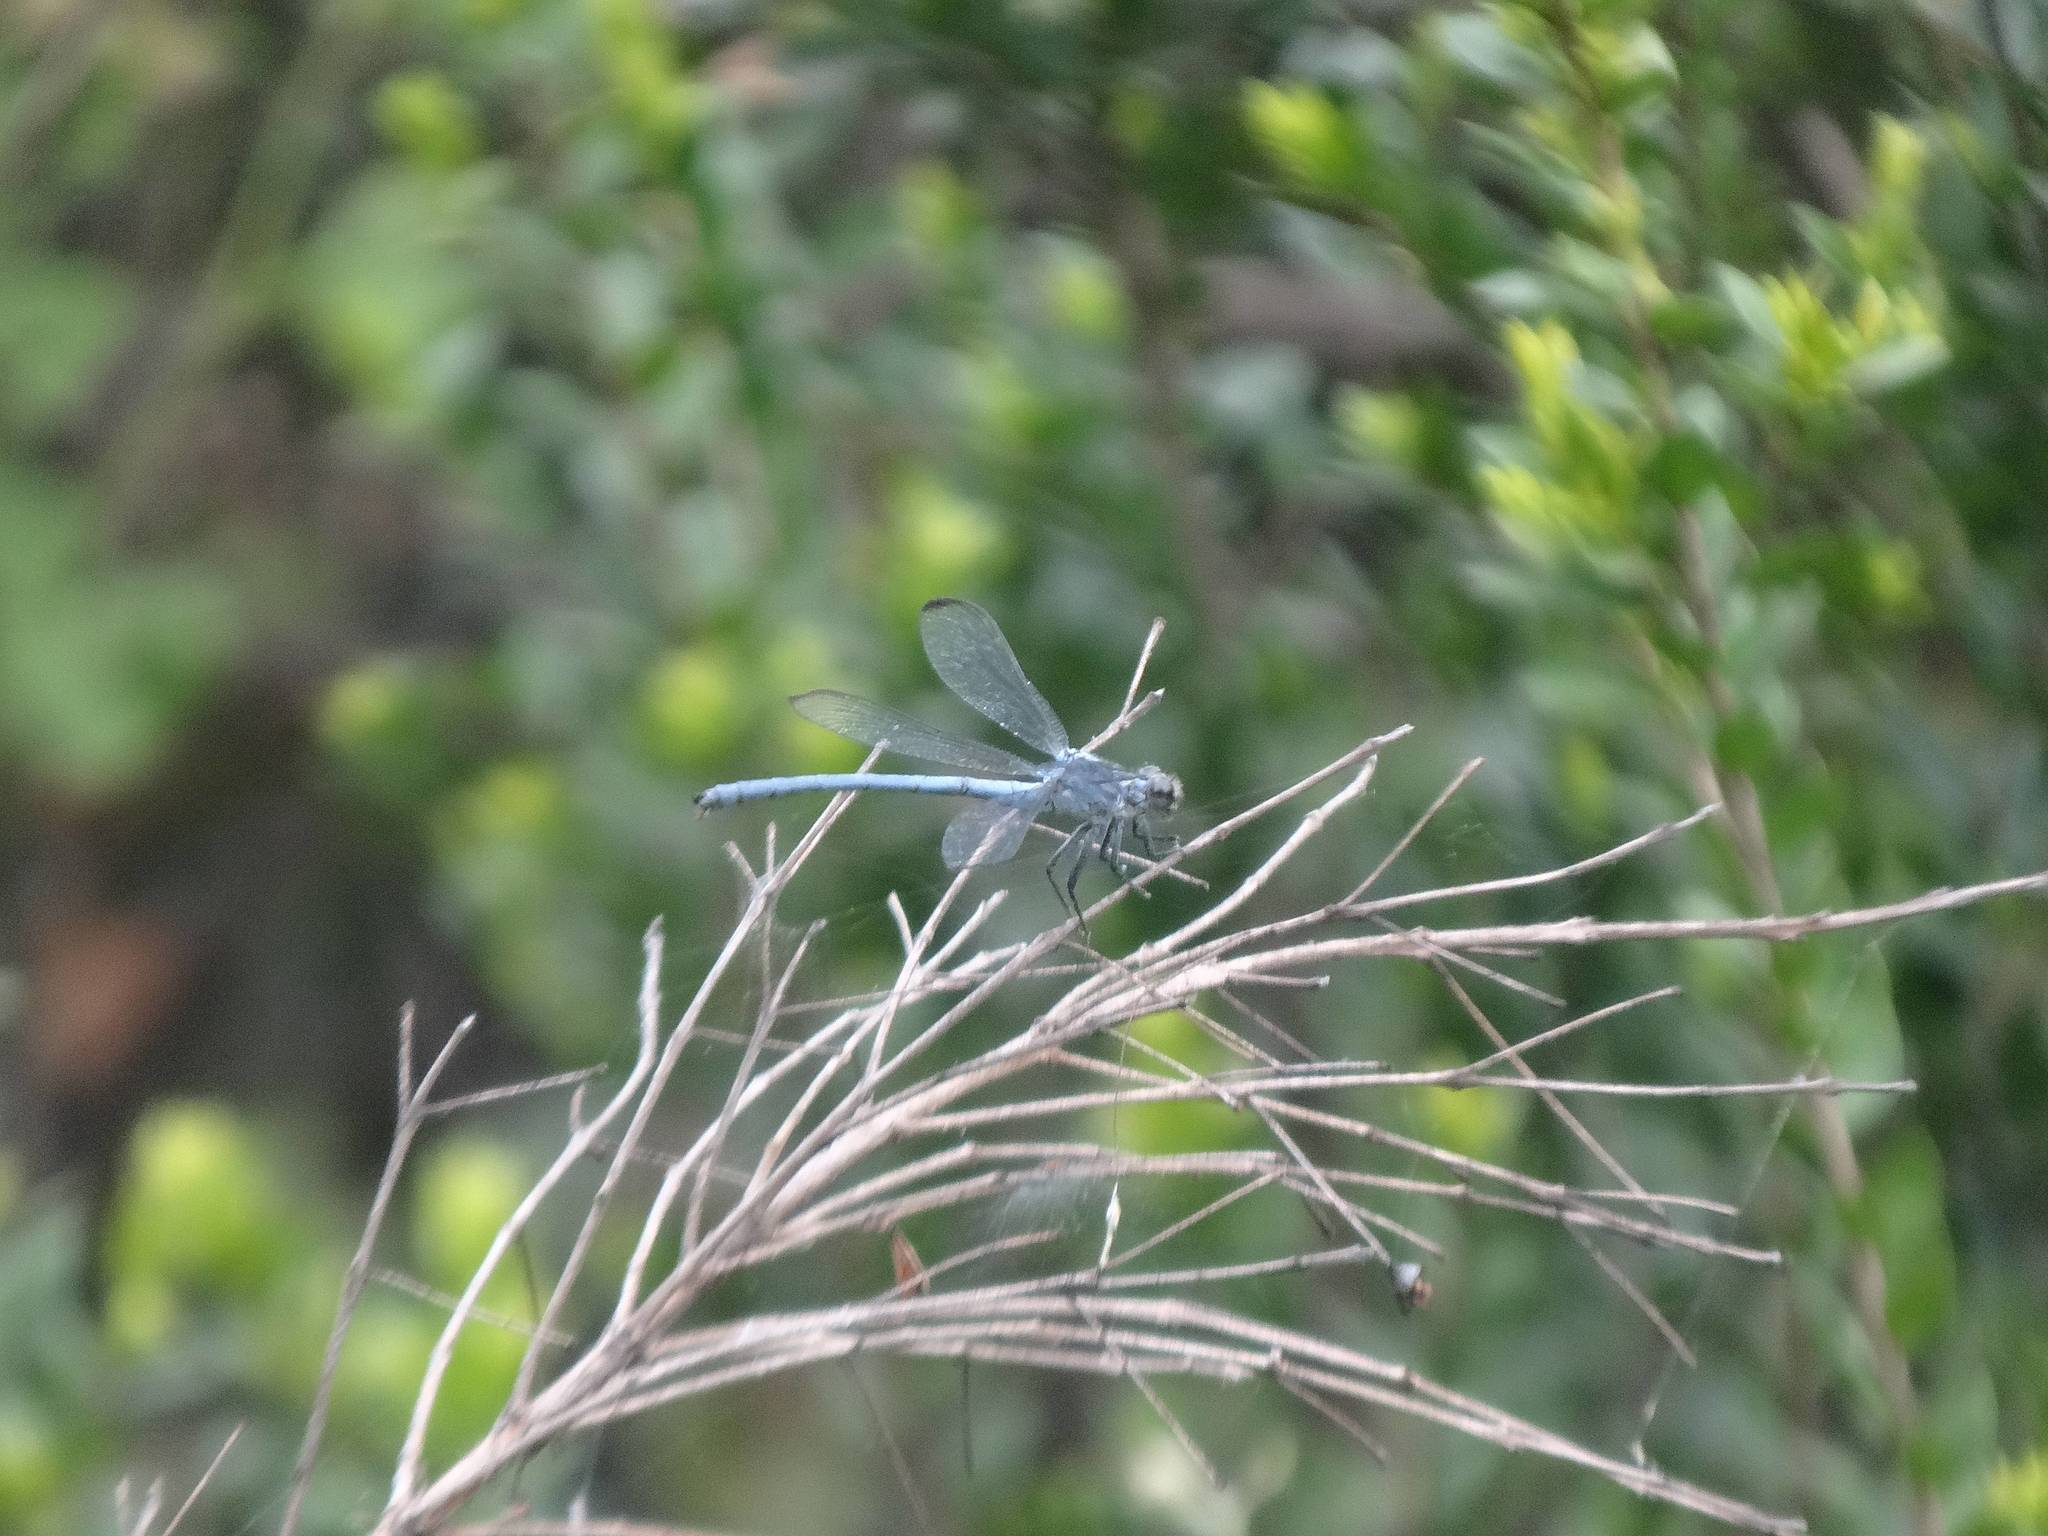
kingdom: Animalia
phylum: Arthropoda
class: Insecta
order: Odonata
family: Euphaeidae
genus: Epallage
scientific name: Epallage fatime
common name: Odalisque
